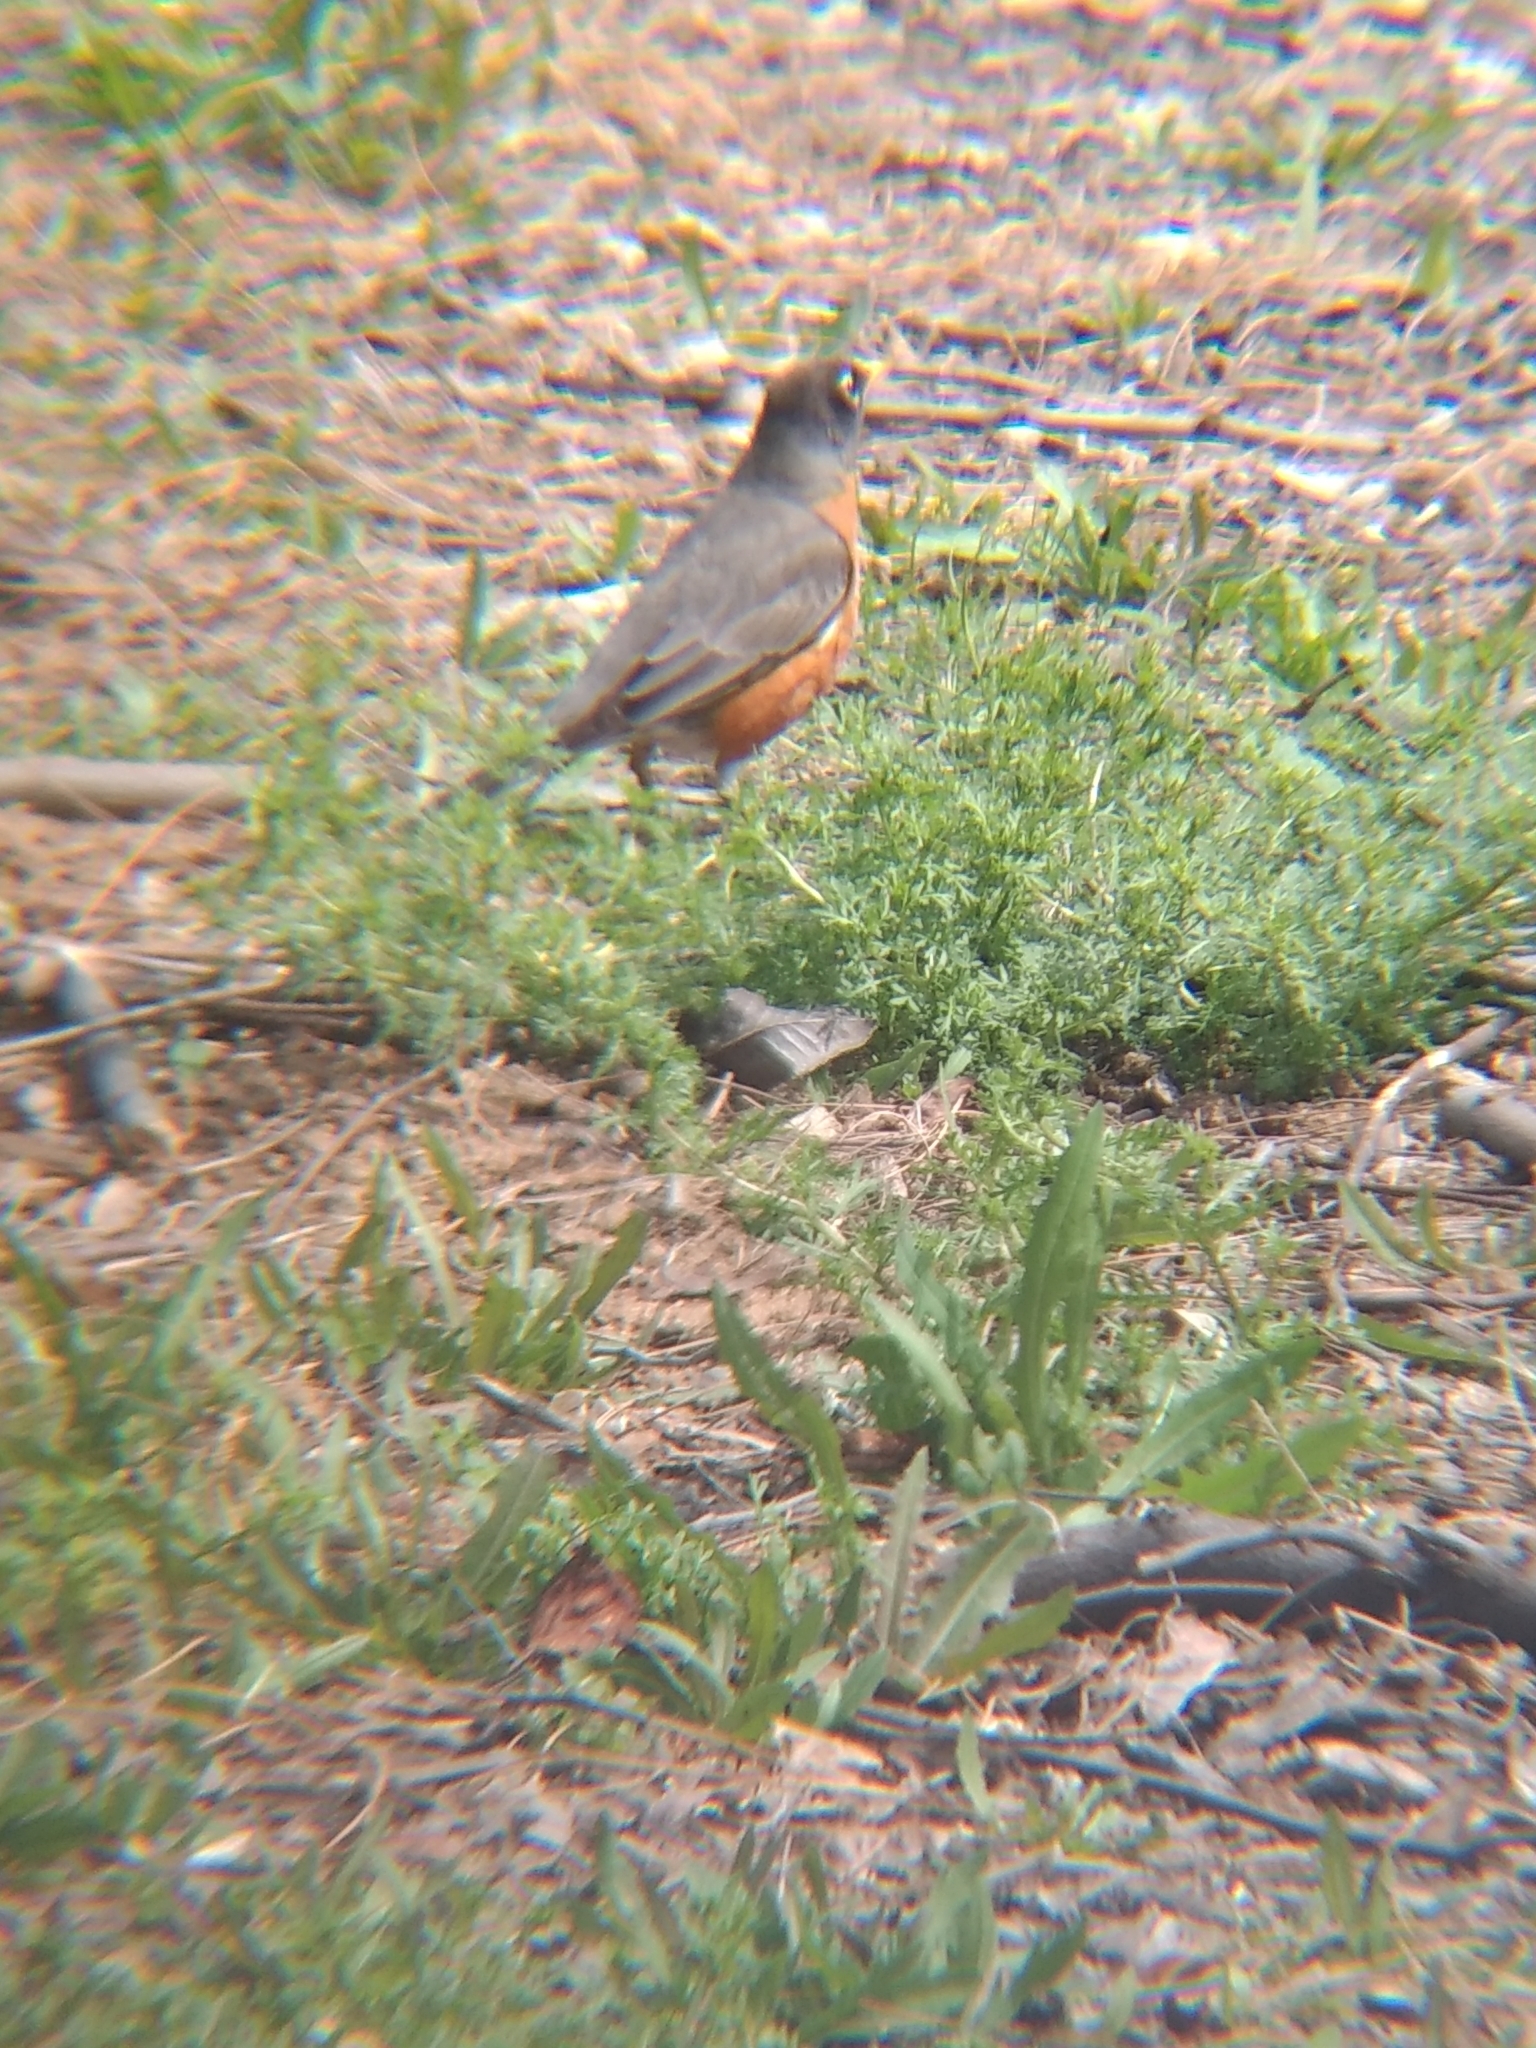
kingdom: Animalia
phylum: Chordata
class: Aves
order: Passeriformes
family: Turdidae
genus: Turdus
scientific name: Turdus migratorius
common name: American robin
